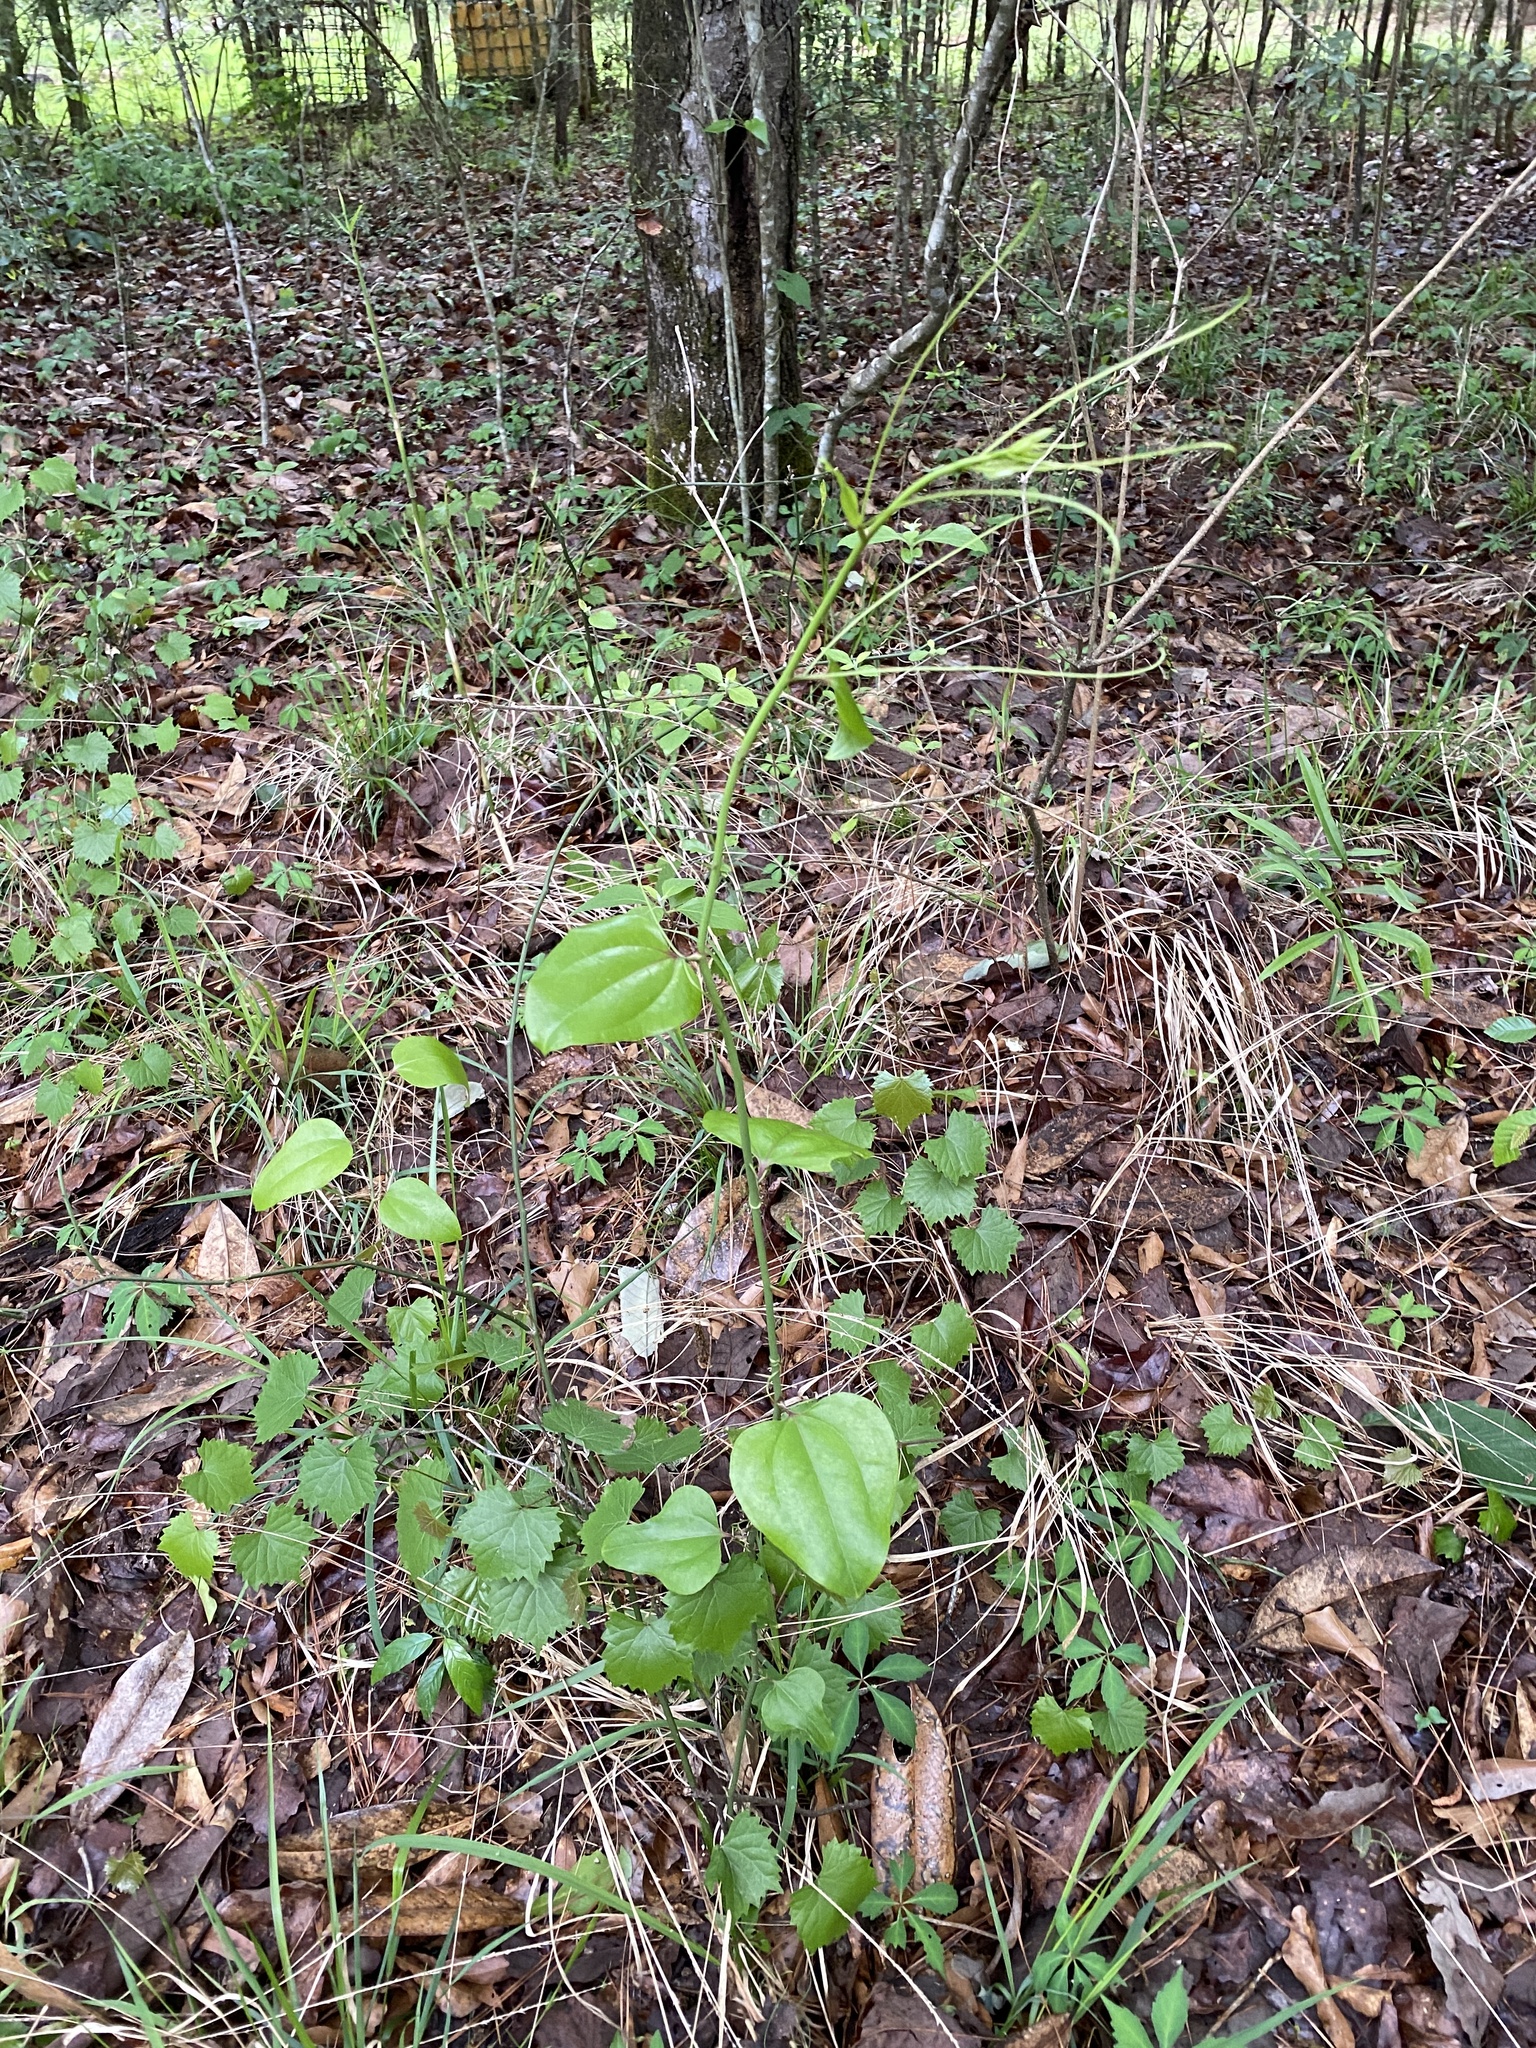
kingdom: Plantae
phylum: Tracheophyta
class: Liliopsida
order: Liliales
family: Smilacaceae
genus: Smilax
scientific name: Smilax rotundifolia
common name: Bullbriar
